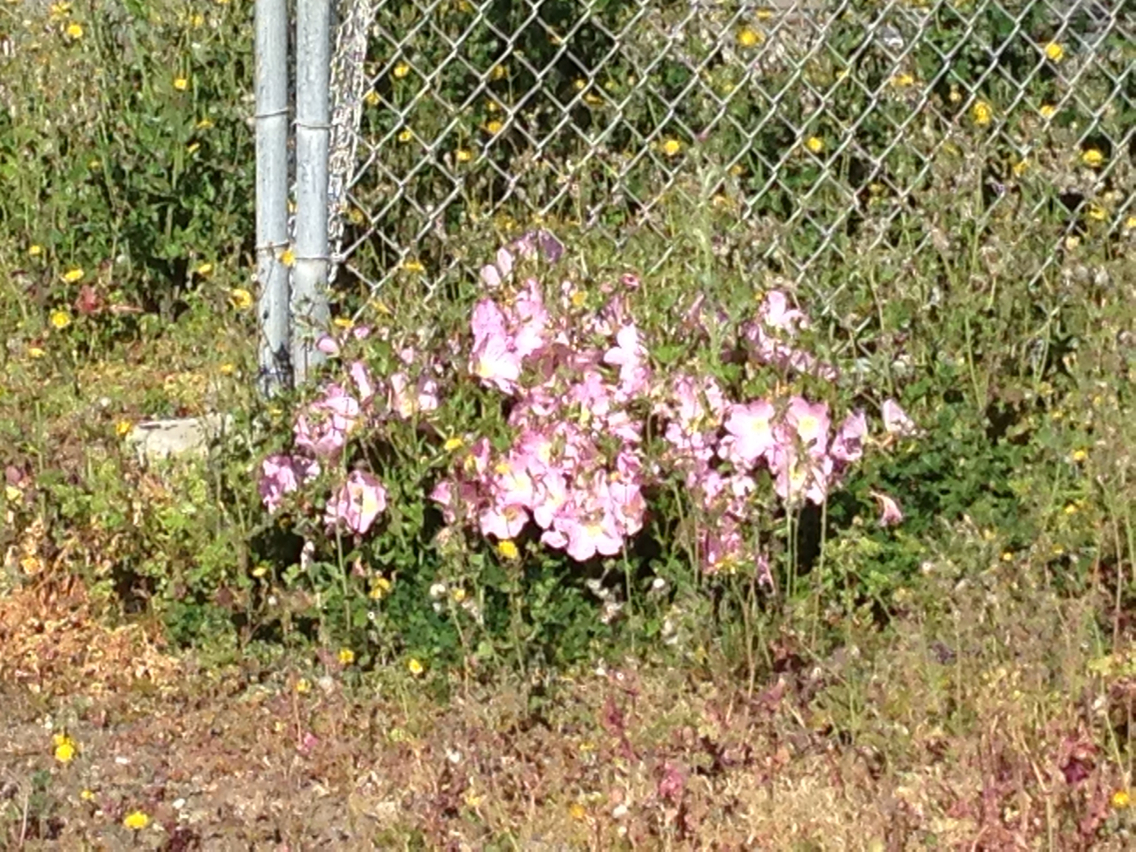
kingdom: Plantae
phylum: Tracheophyta
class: Magnoliopsida
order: Myrtales
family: Onagraceae
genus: Oenothera
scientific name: Oenothera speciosa
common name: White evening-primrose
